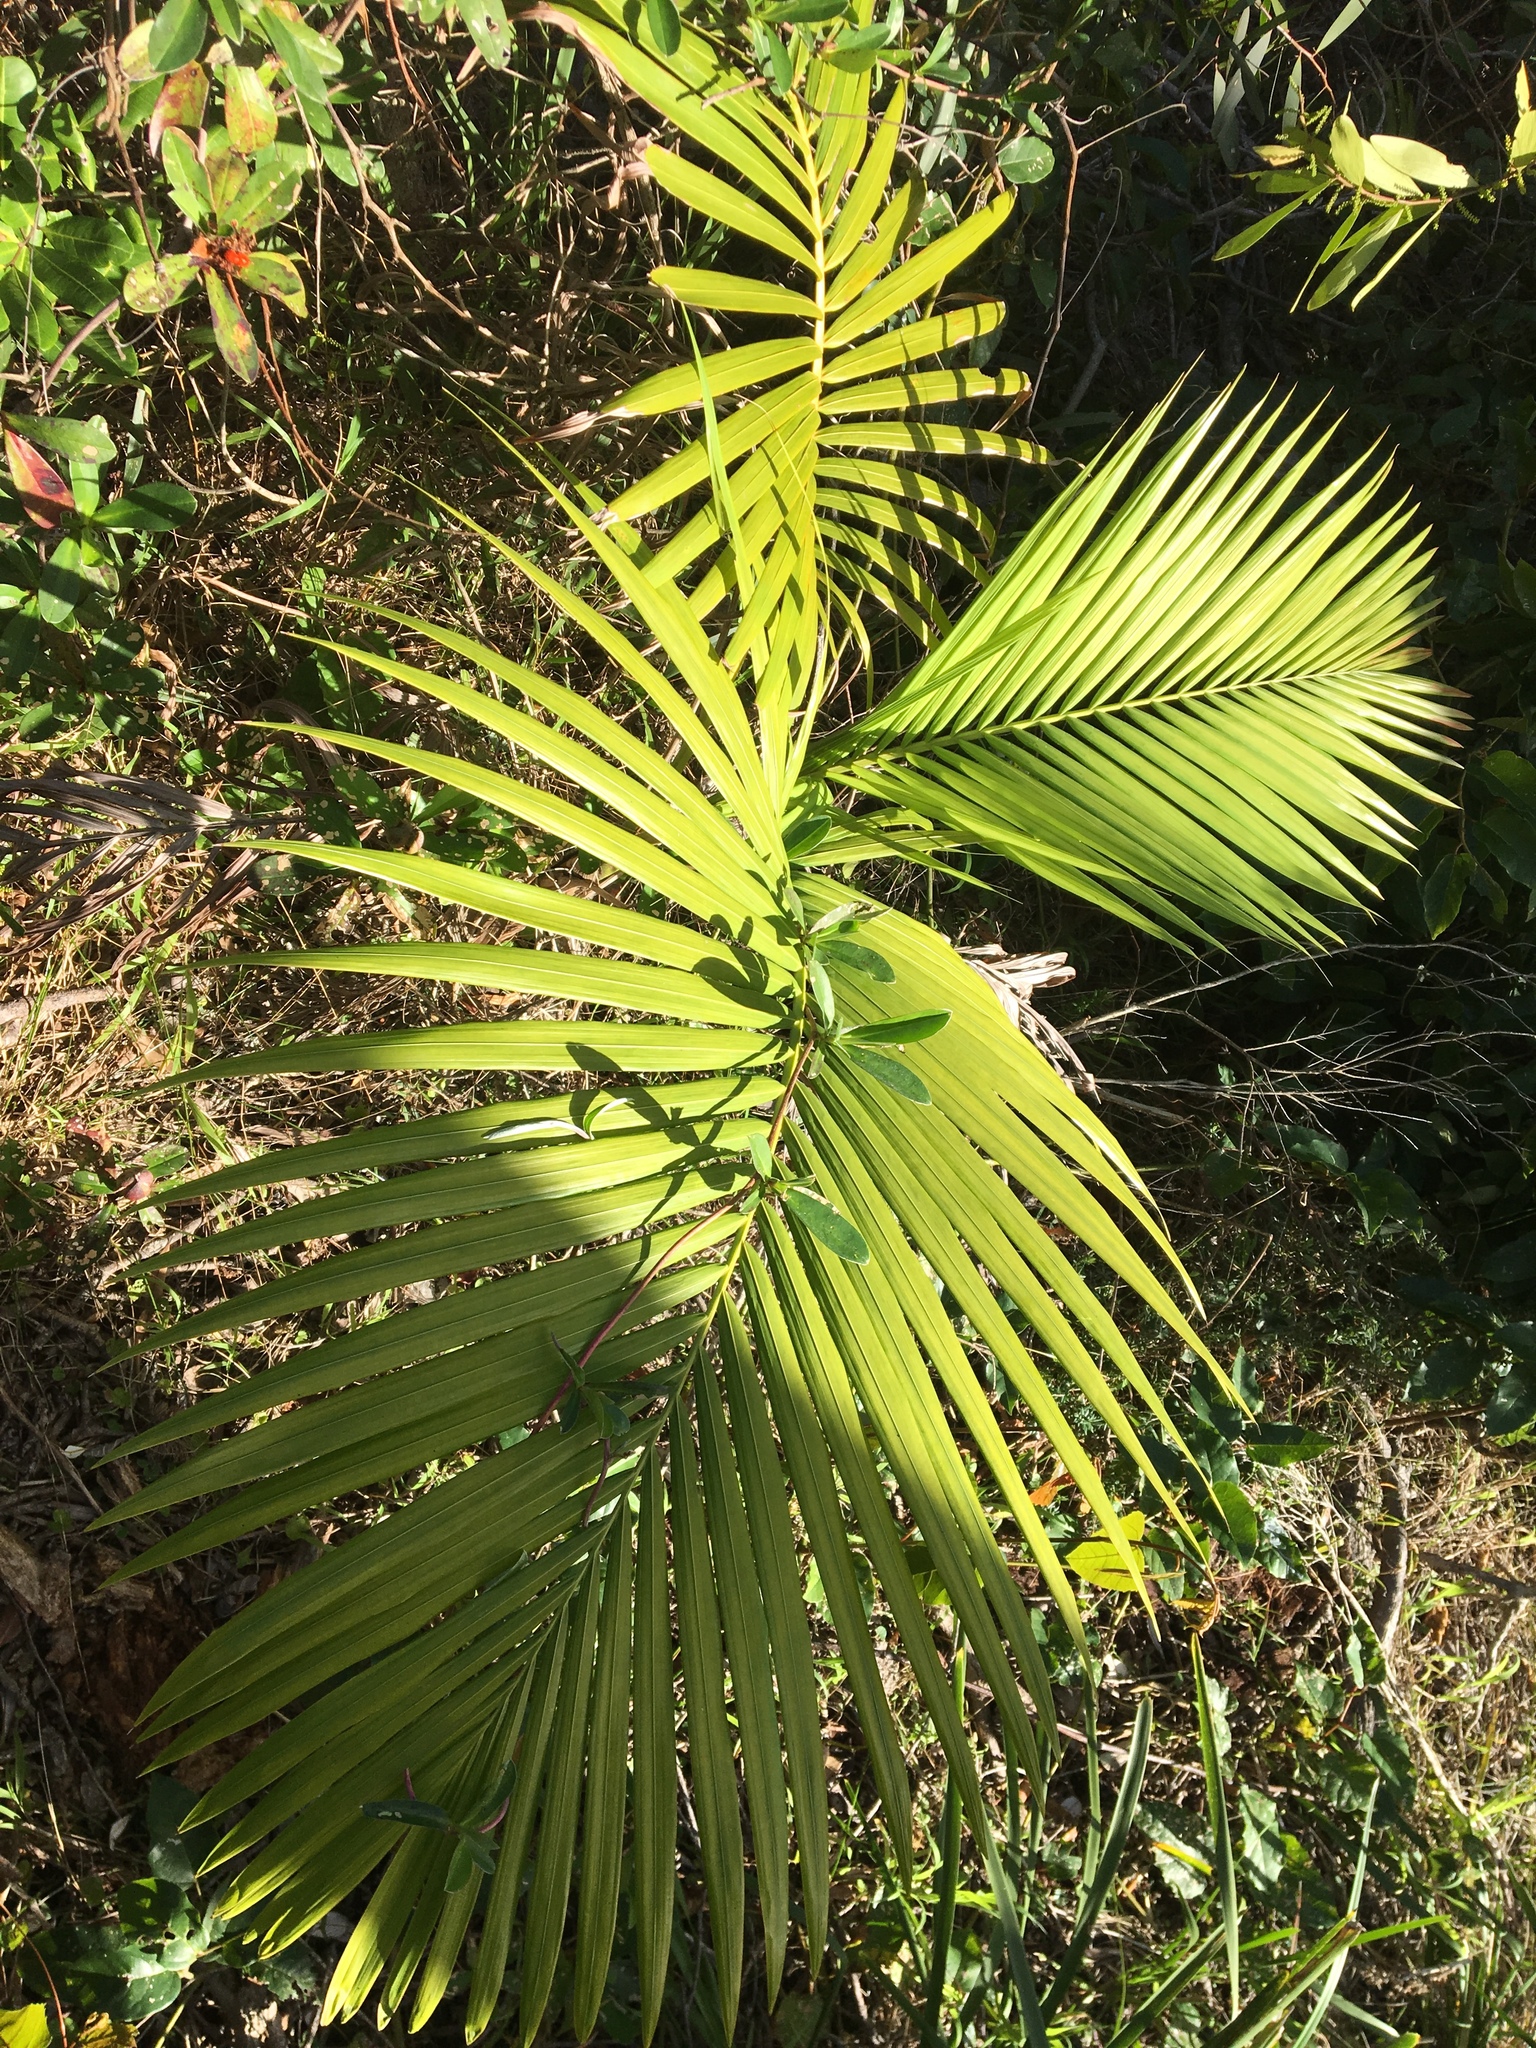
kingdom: Plantae
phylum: Tracheophyta
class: Liliopsida
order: Arecales
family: Arecaceae
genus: Archontophoenix
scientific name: Archontophoenix cunninghamiana
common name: Piccabeen bangalow palm
